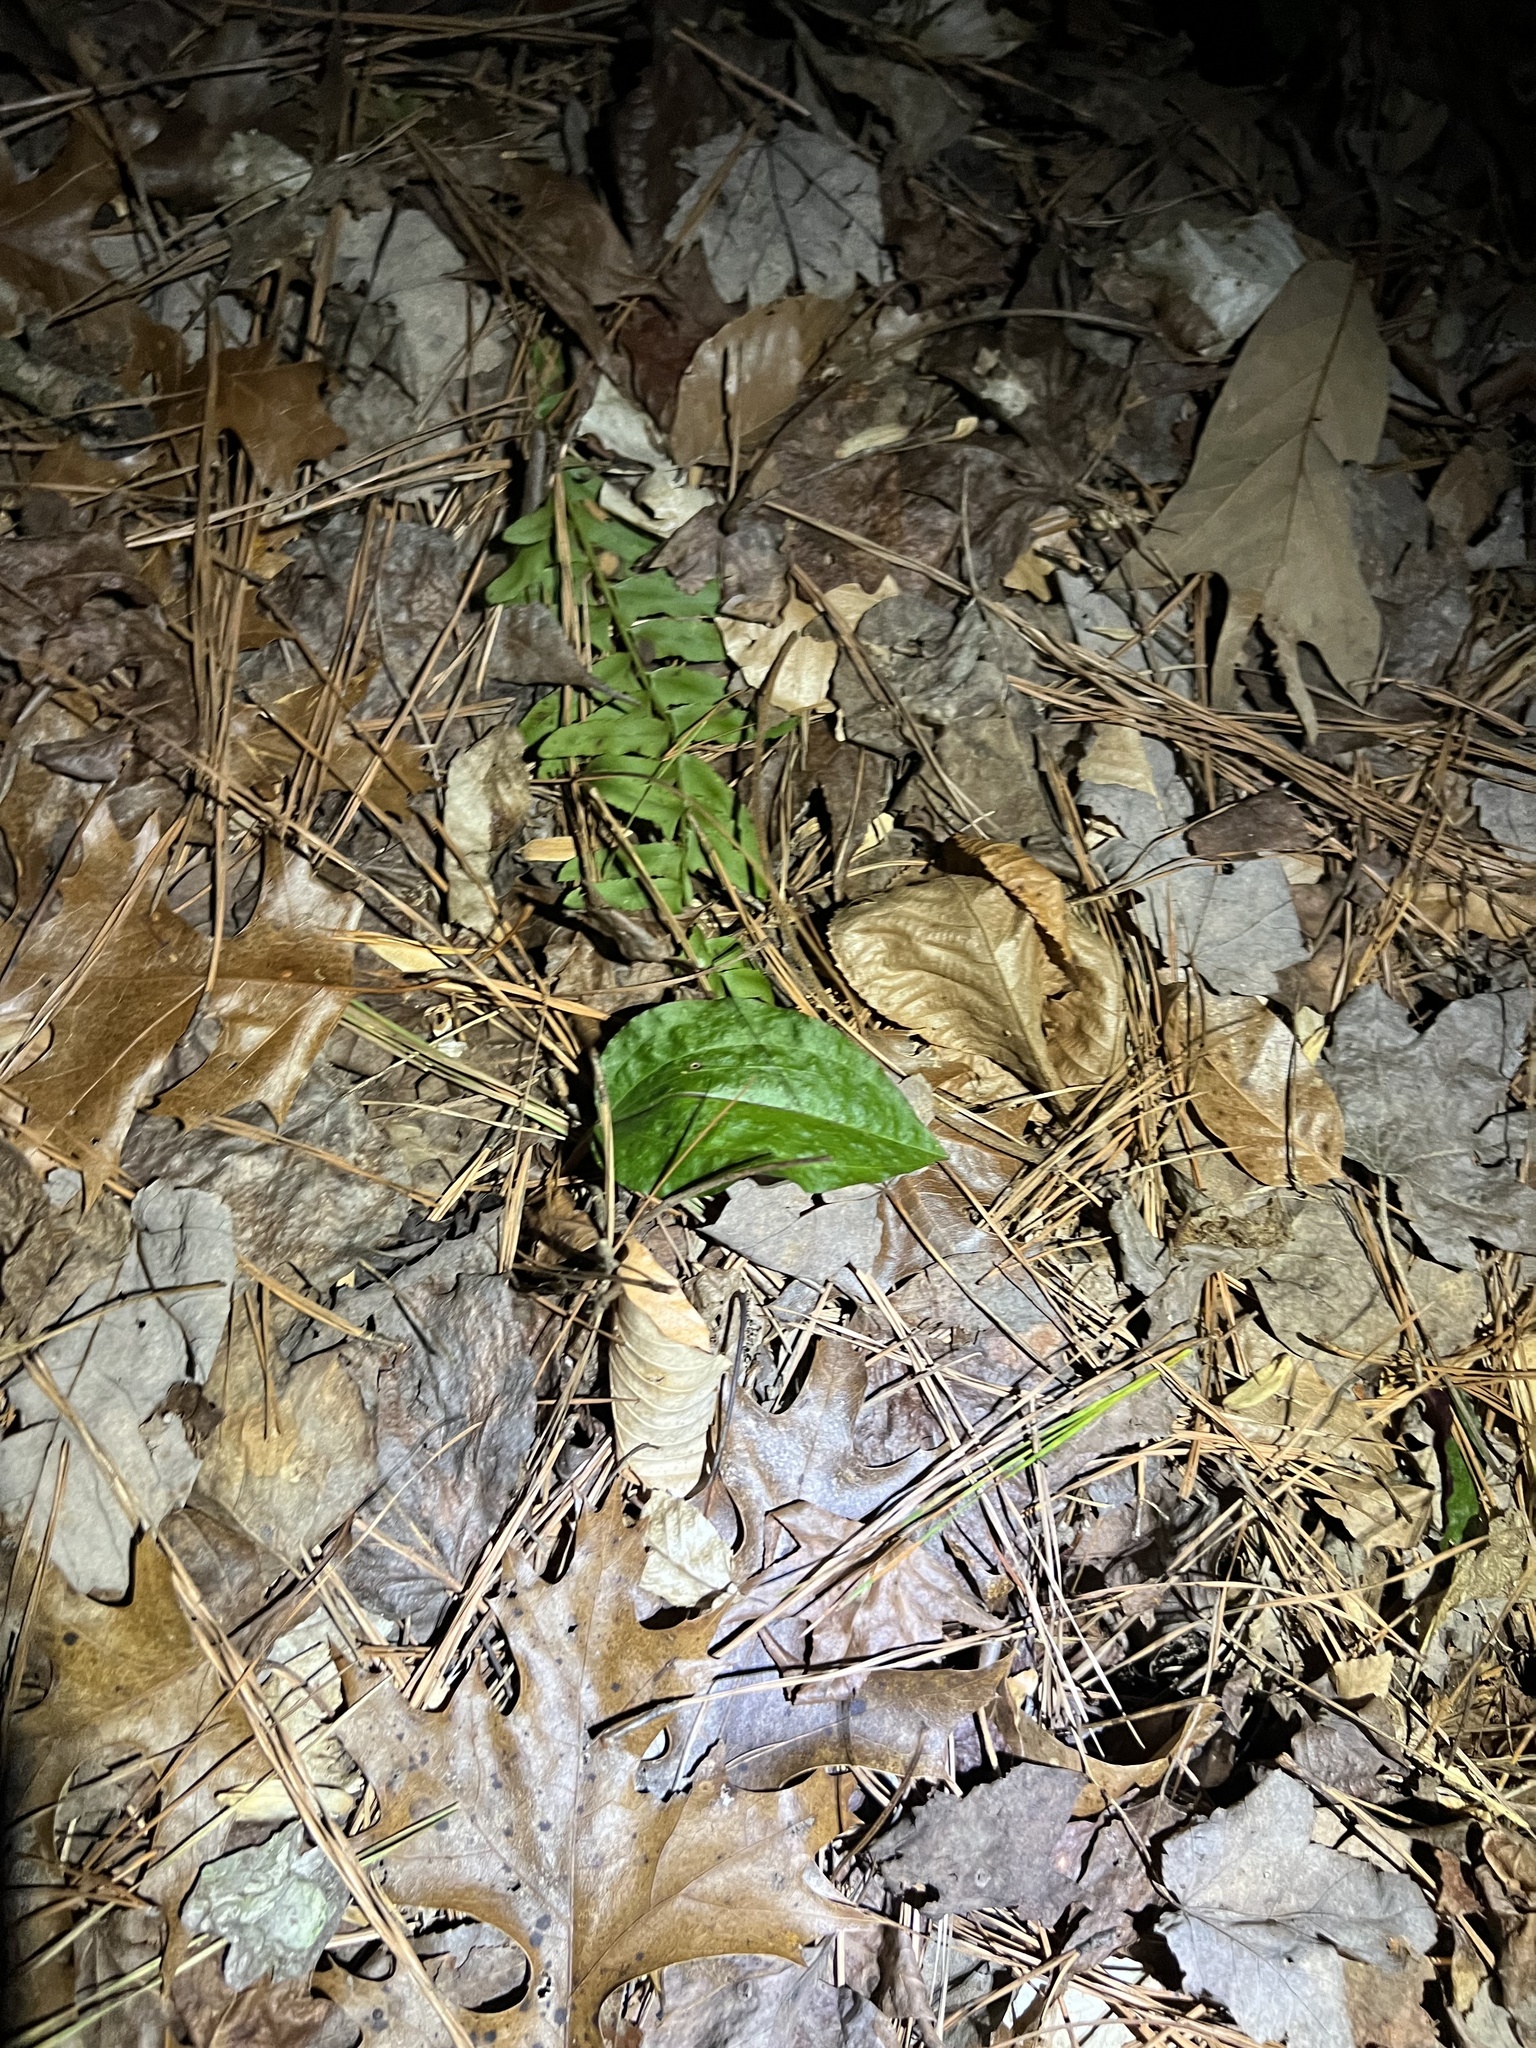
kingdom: Plantae
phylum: Tracheophyta
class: Liliopsida
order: Asparagales
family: Orchidaceae
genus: Tipularia
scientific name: Tipularia discolor
